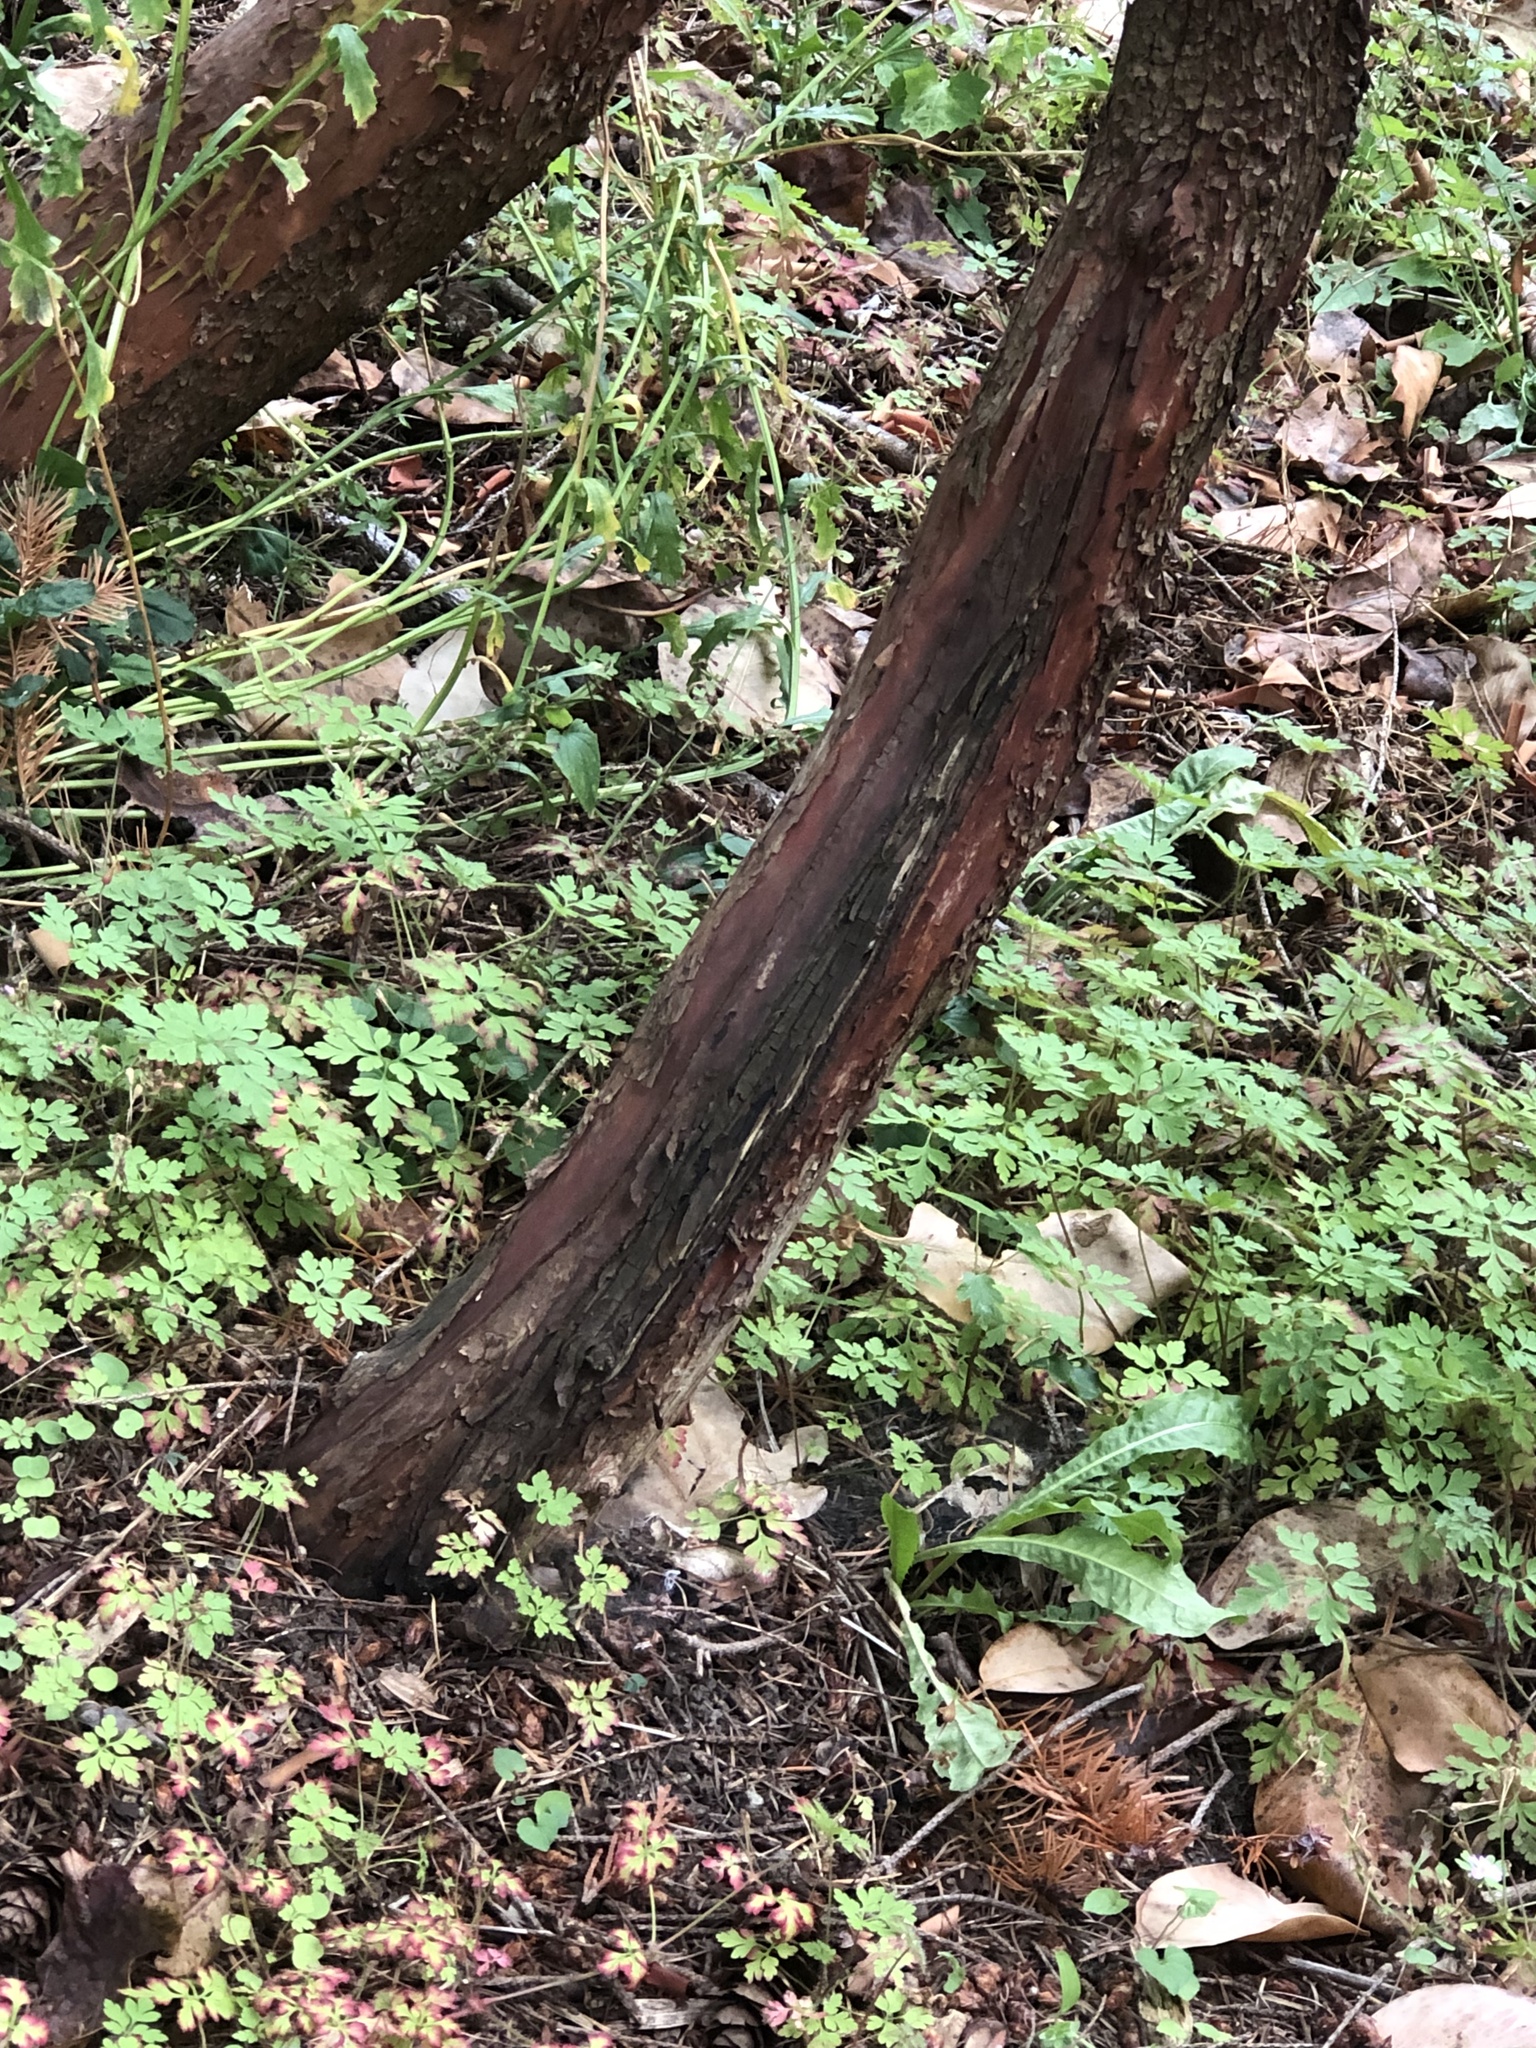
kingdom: Plantae
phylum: Tracheophyta
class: Magnoliopsida
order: Ericales
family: Ericaceae
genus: Arbutus
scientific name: Arbutus menziesii
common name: Pacific madrone
